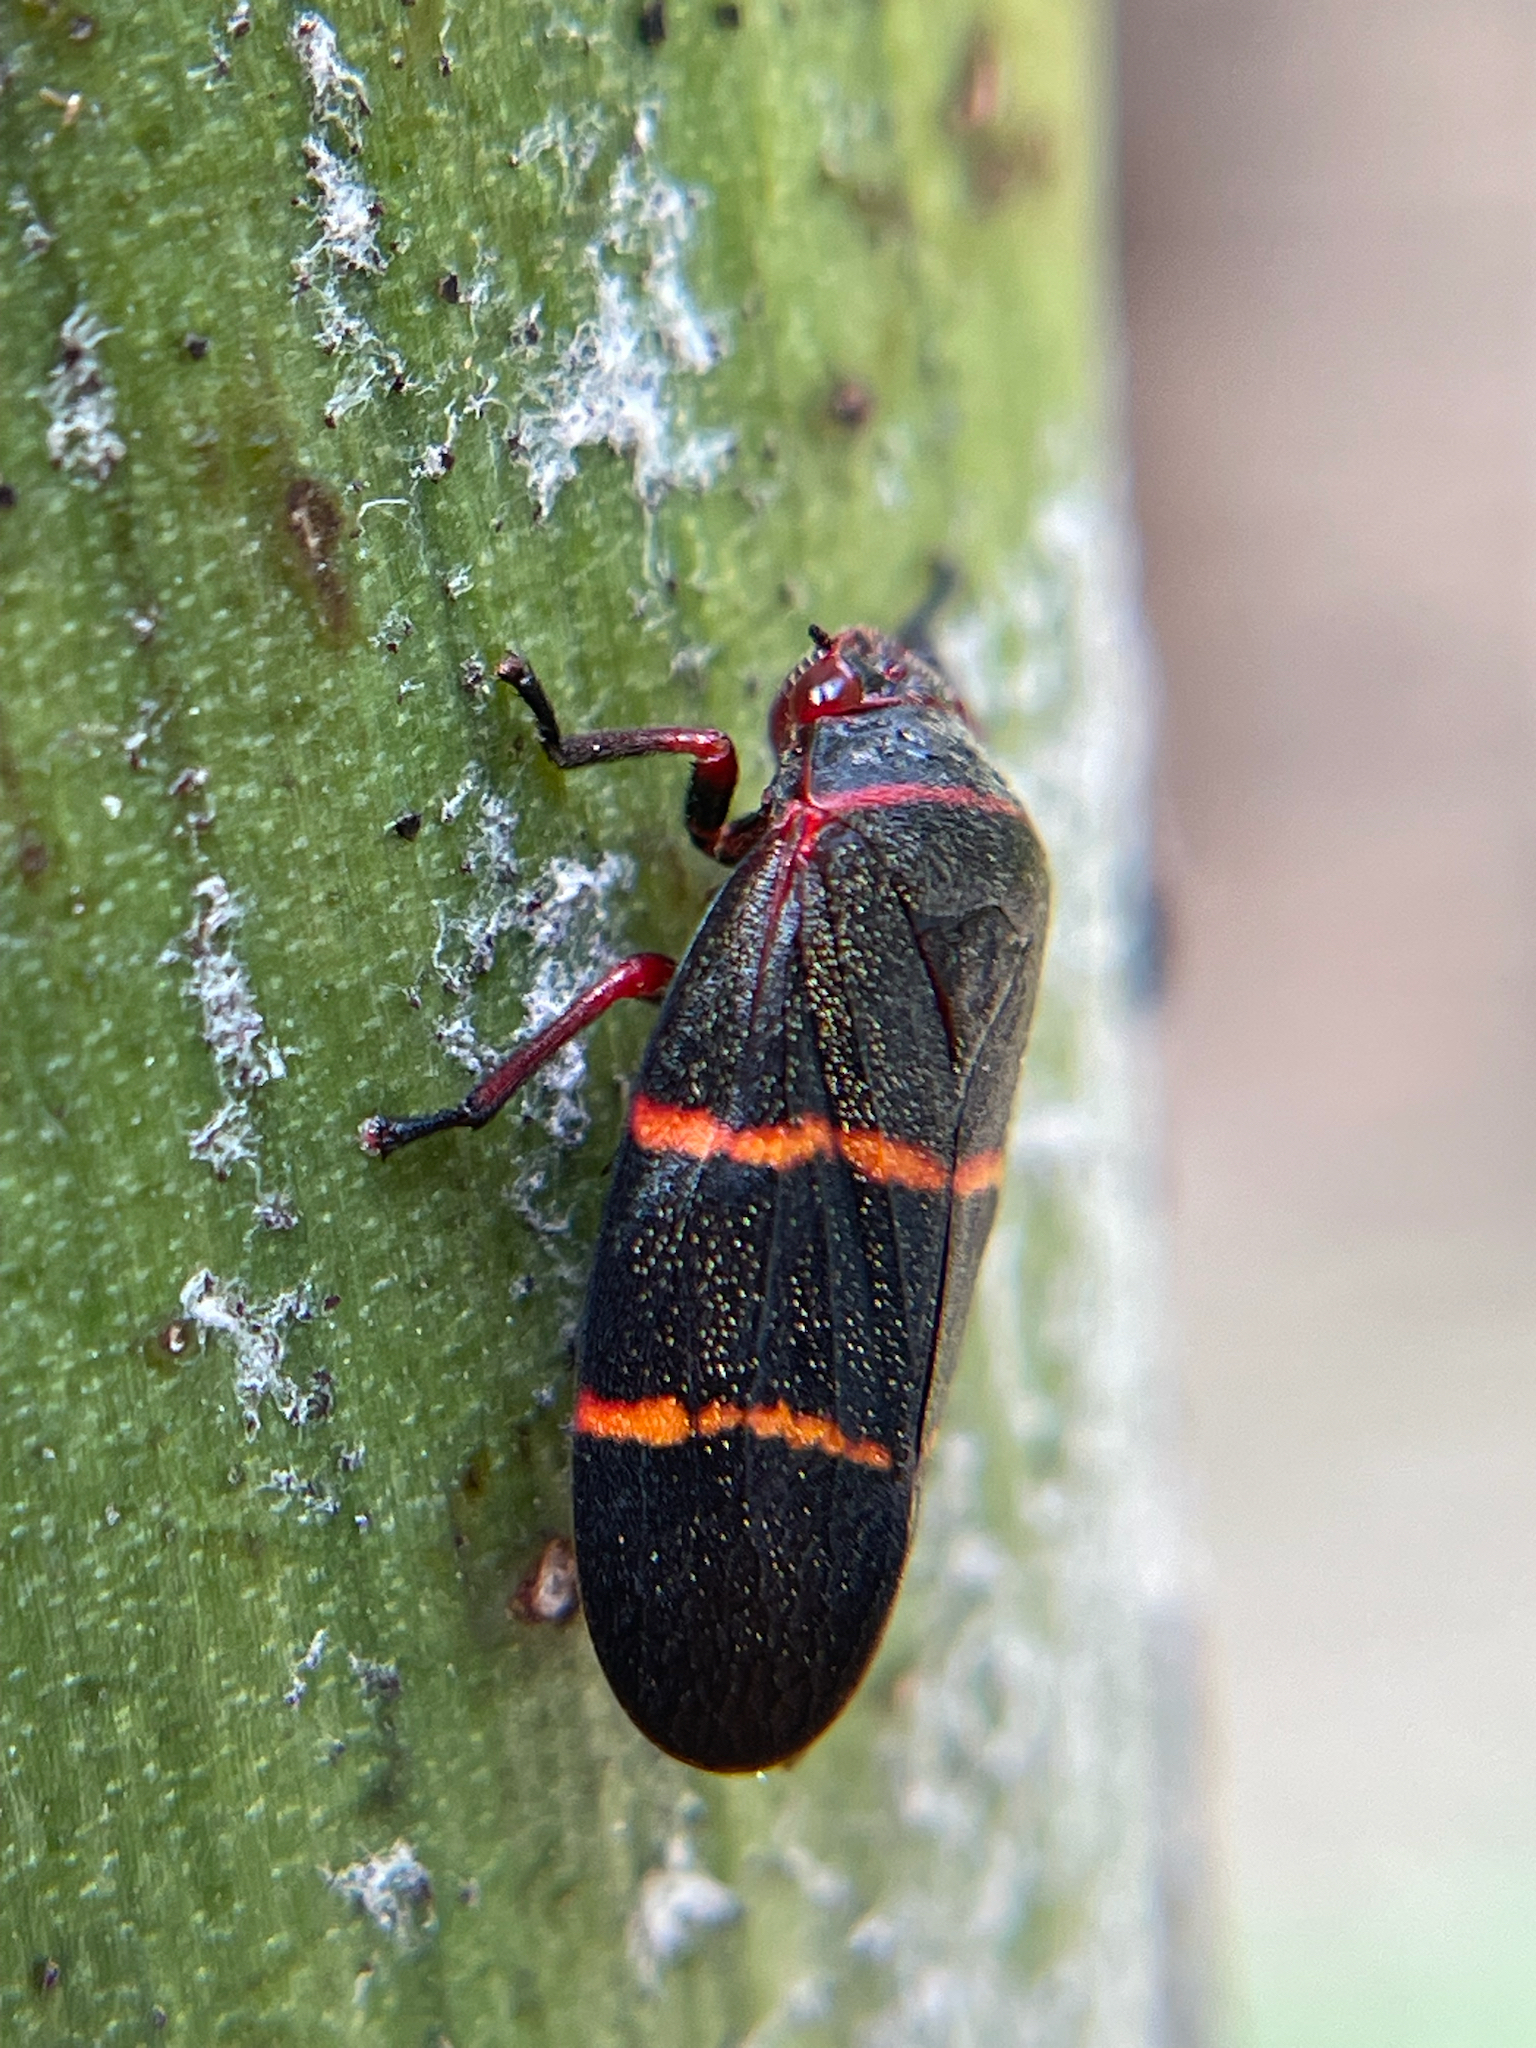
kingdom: Animalia
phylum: Arthropoda
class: Insecta
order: Hemiptera
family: Cercopidae
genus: Prosapia
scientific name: Prosapia bicincta
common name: Twolined spittlebug
